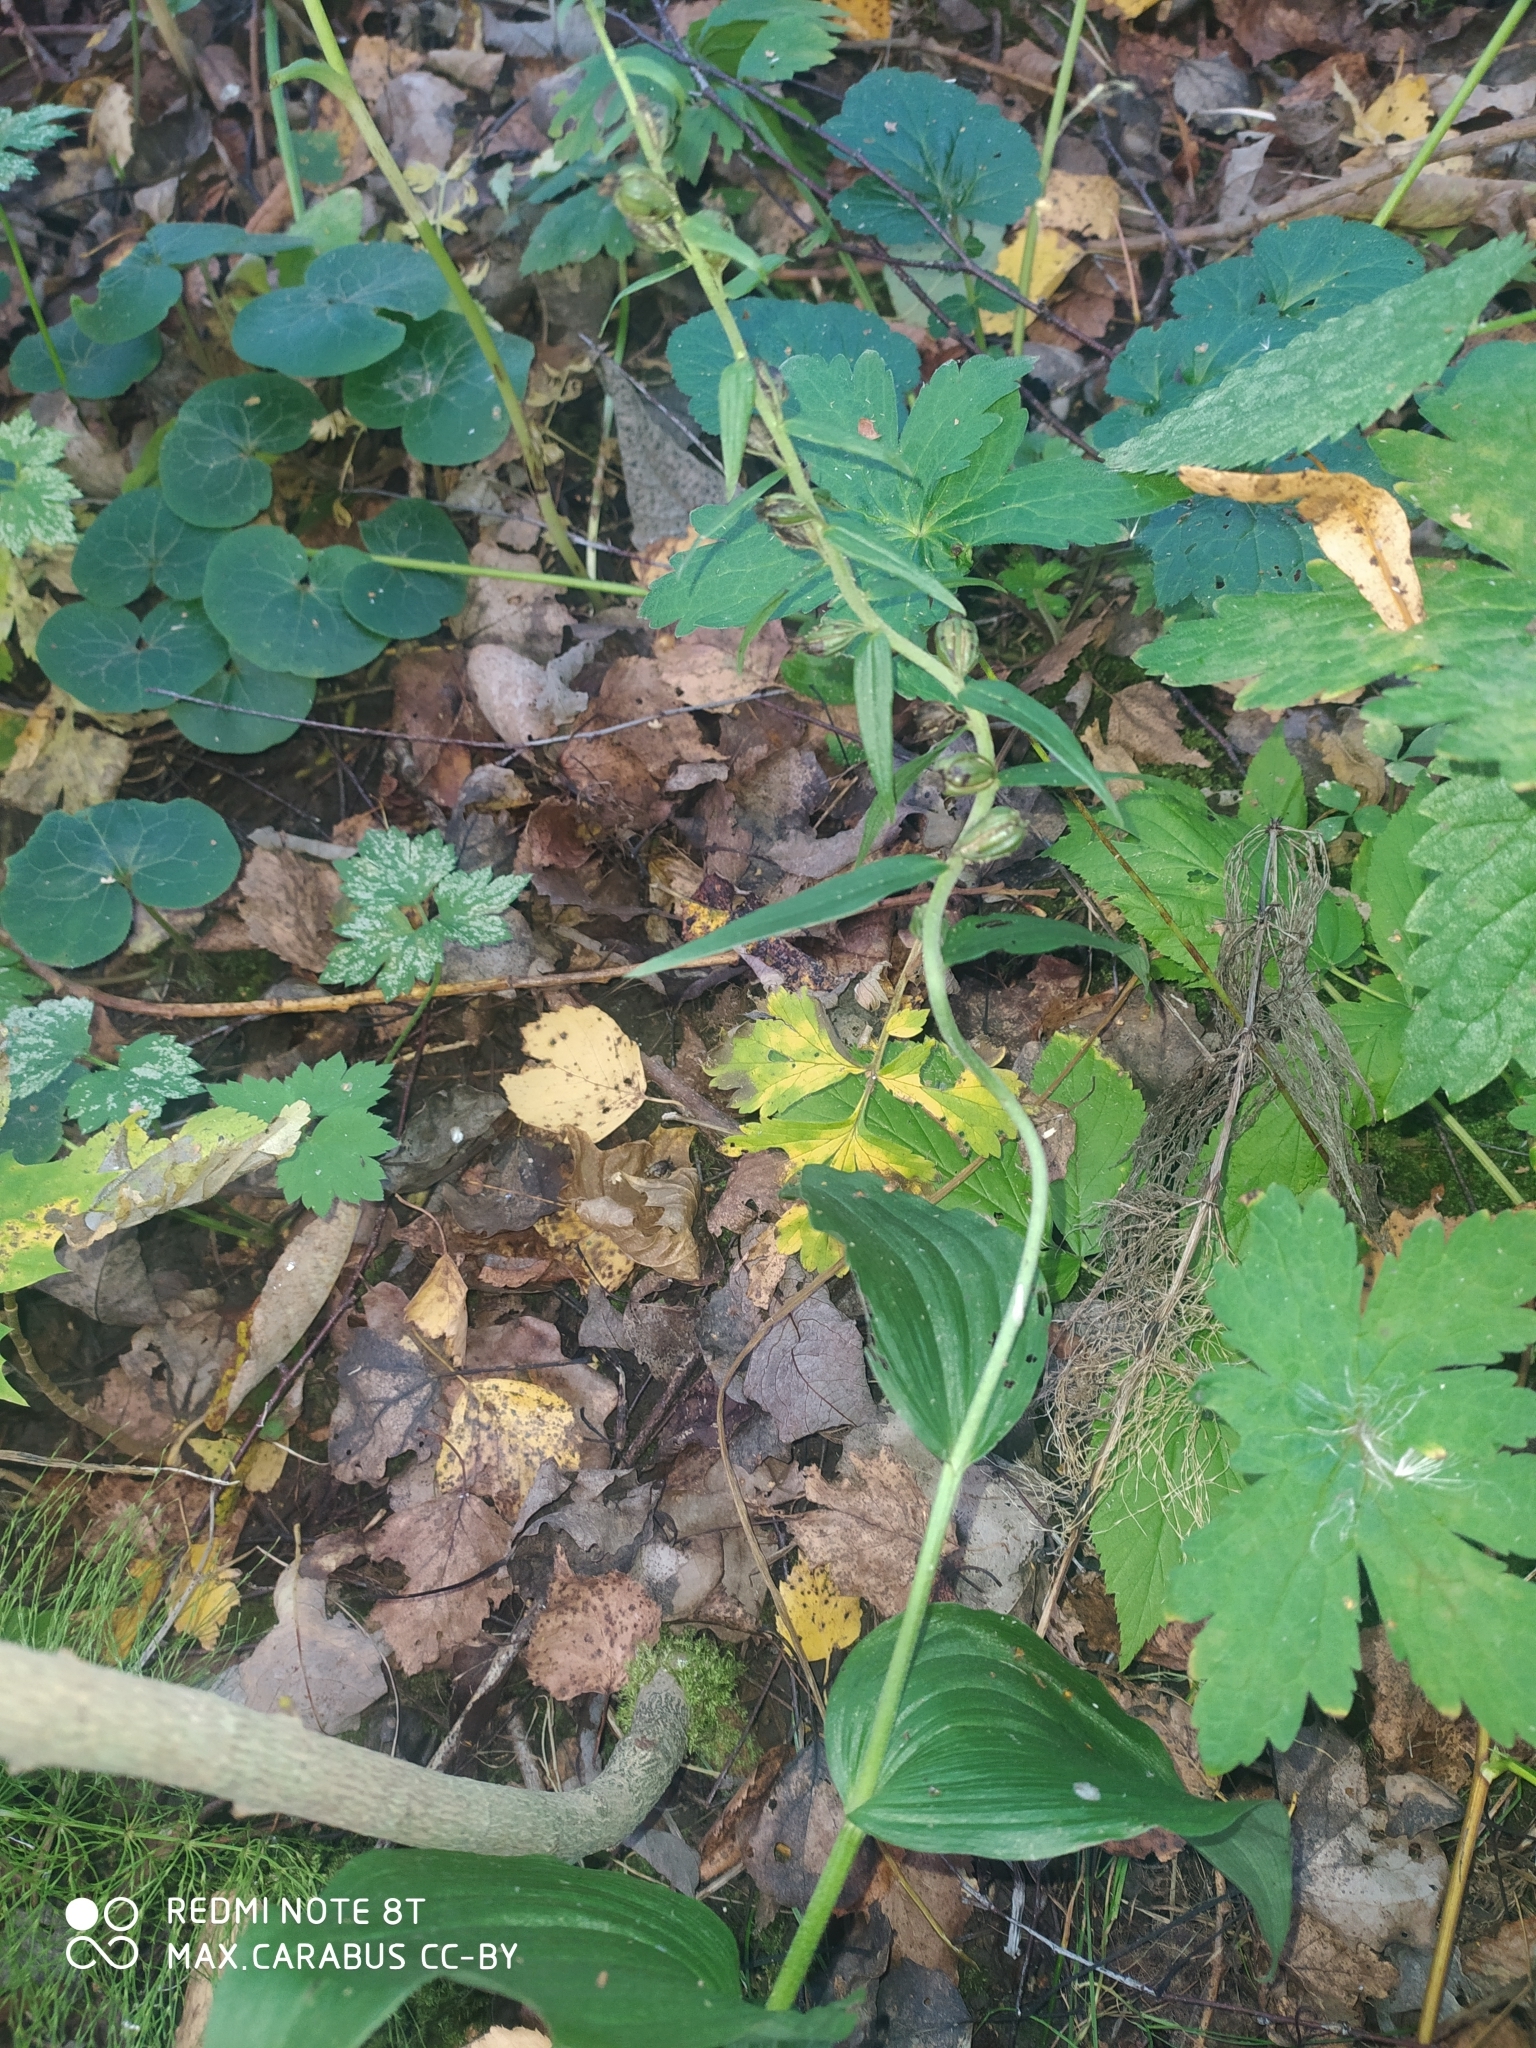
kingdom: Plantae
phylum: Tracheophyta
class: Liliopsida
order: Asparagales
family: Orchidaceae
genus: Epipactis
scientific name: Epipactis helleborine
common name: Broad-leaved helleborine
